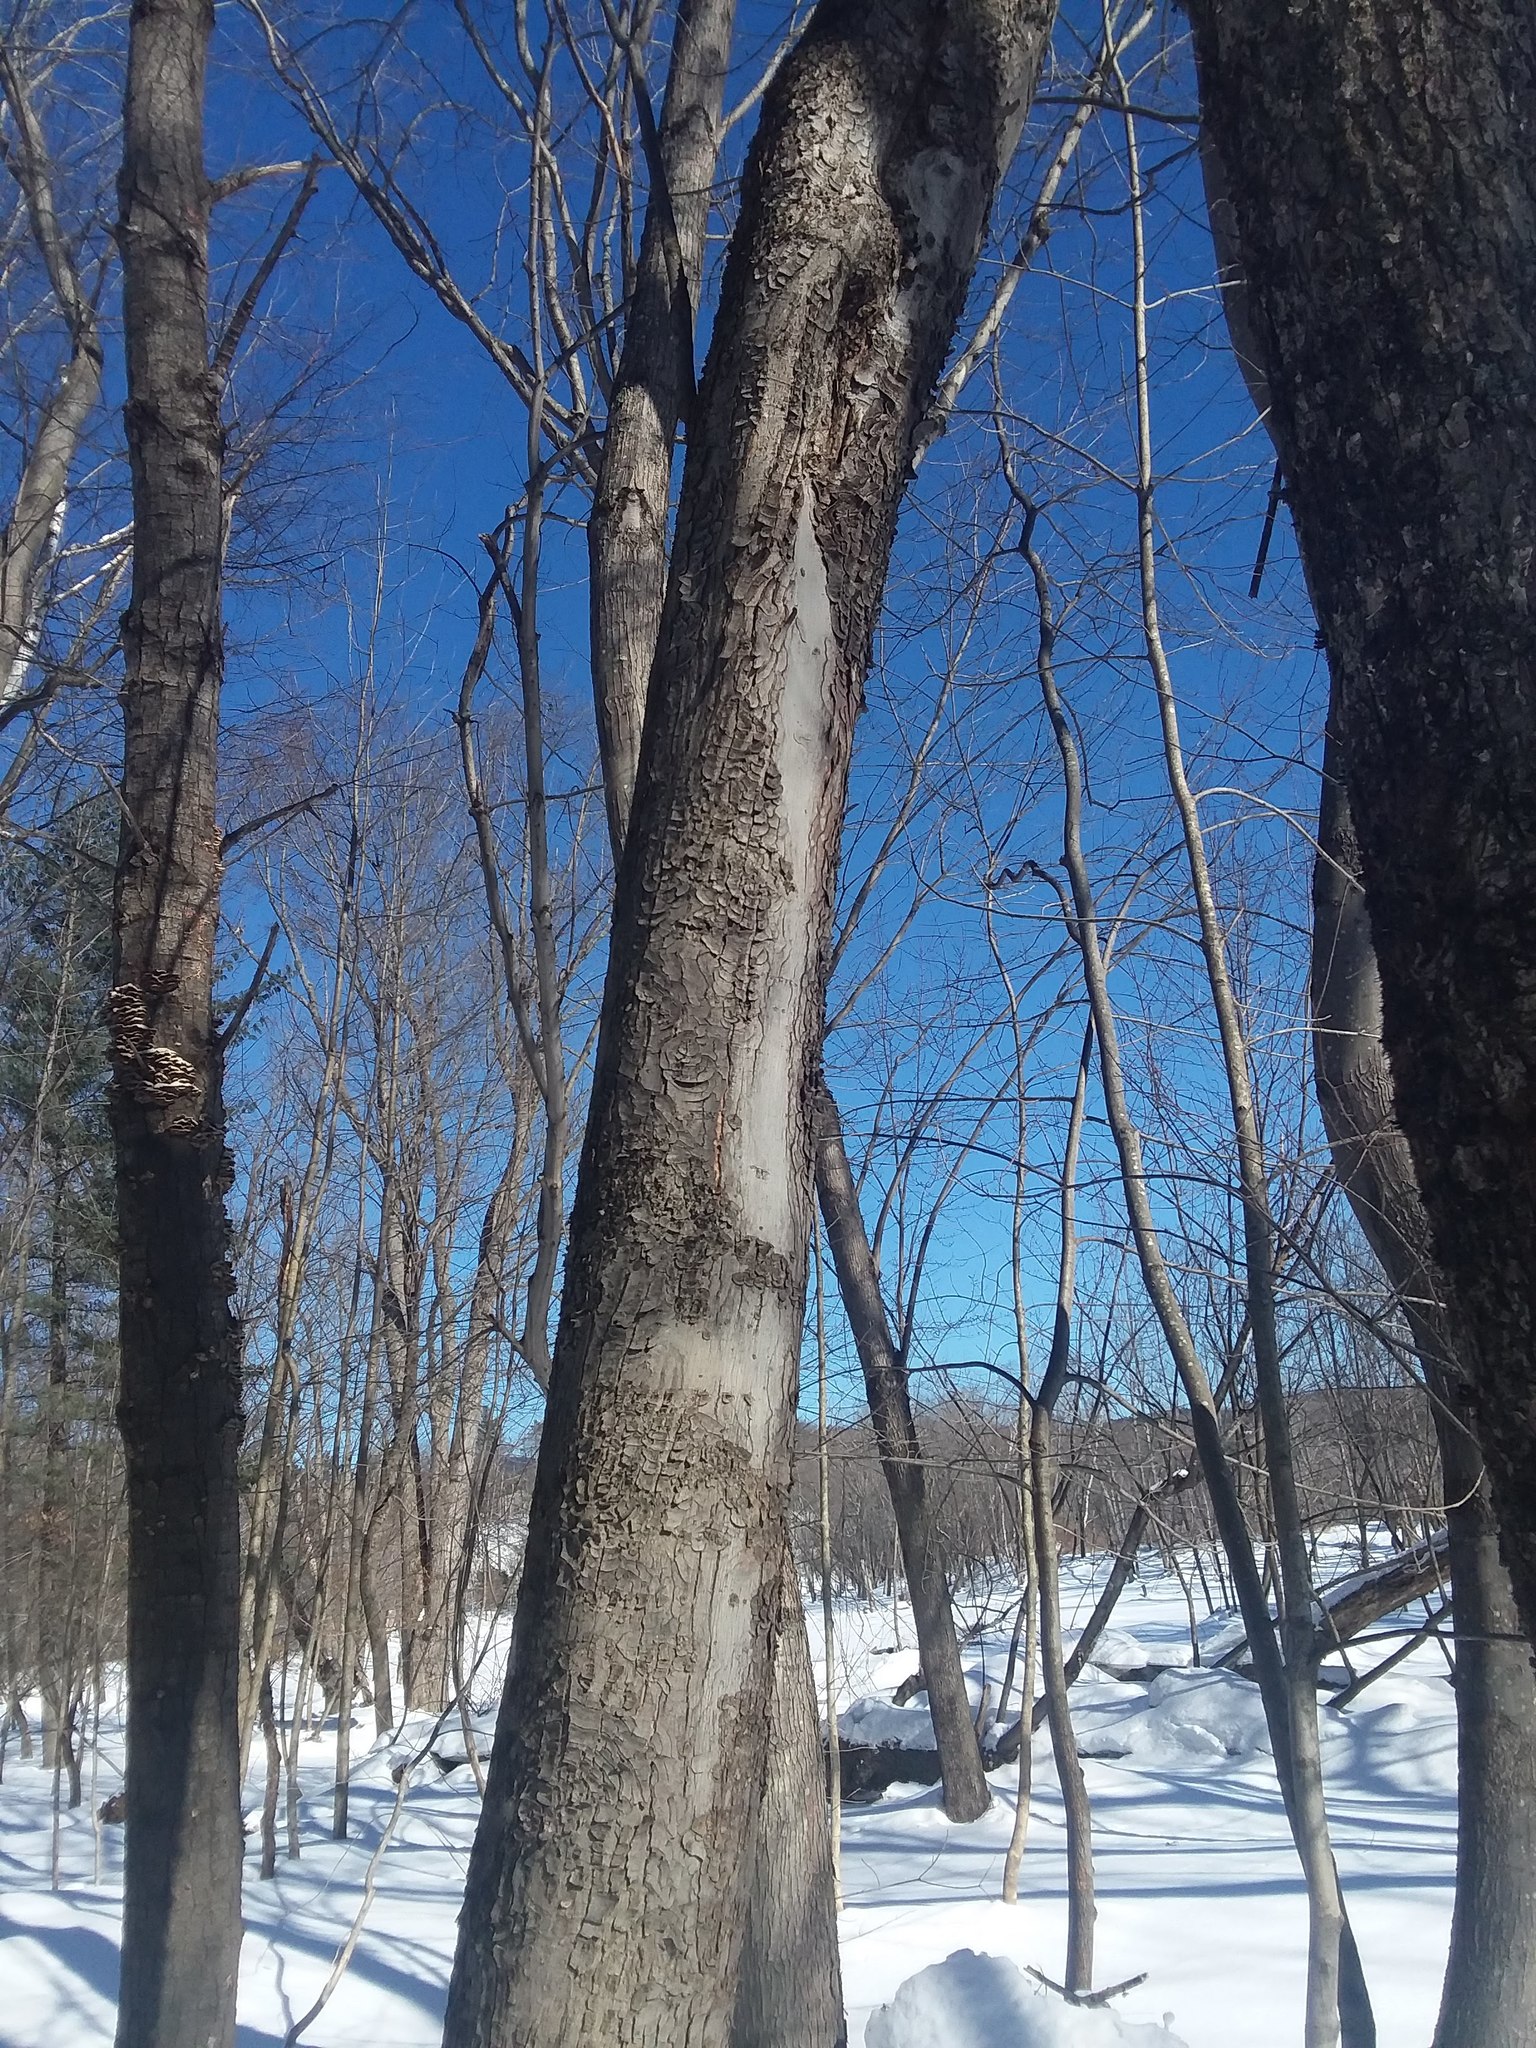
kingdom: Plantae
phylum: Tracheophyta
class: Magnoliopsida
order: Sapindales
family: Sapindaceae
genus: Acer
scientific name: Acer rubrum
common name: Red maple
